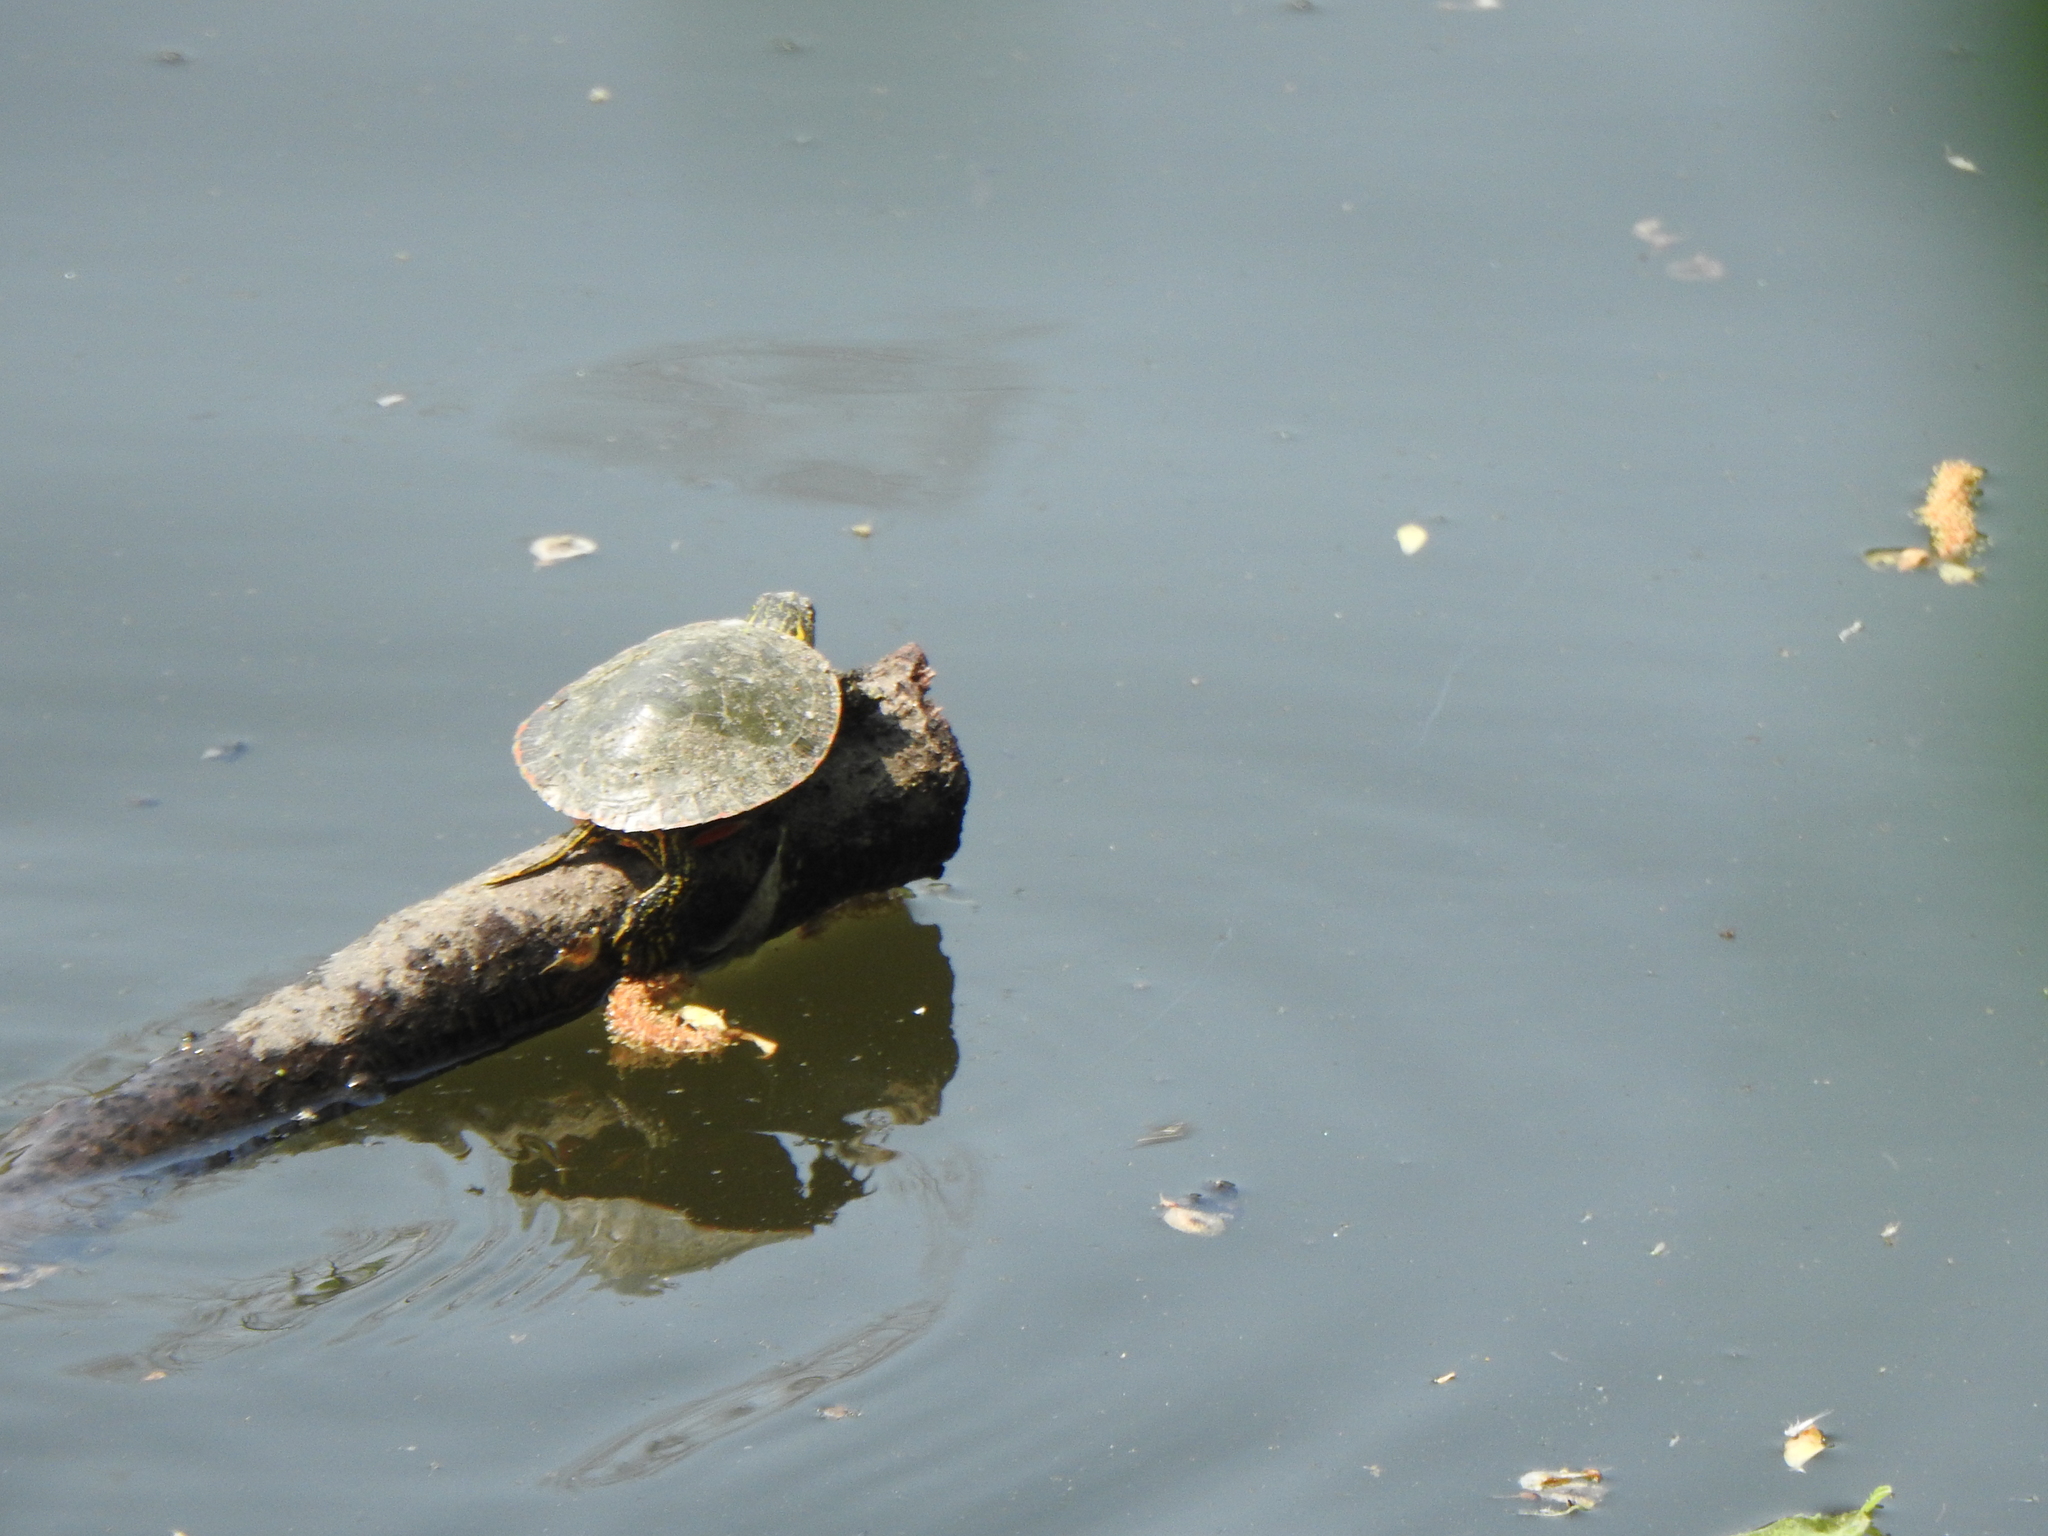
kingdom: Animalia
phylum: Chordata
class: Testudines
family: Emydidae
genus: Chrysemys
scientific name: Chrysemys picta
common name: Painted turtle
